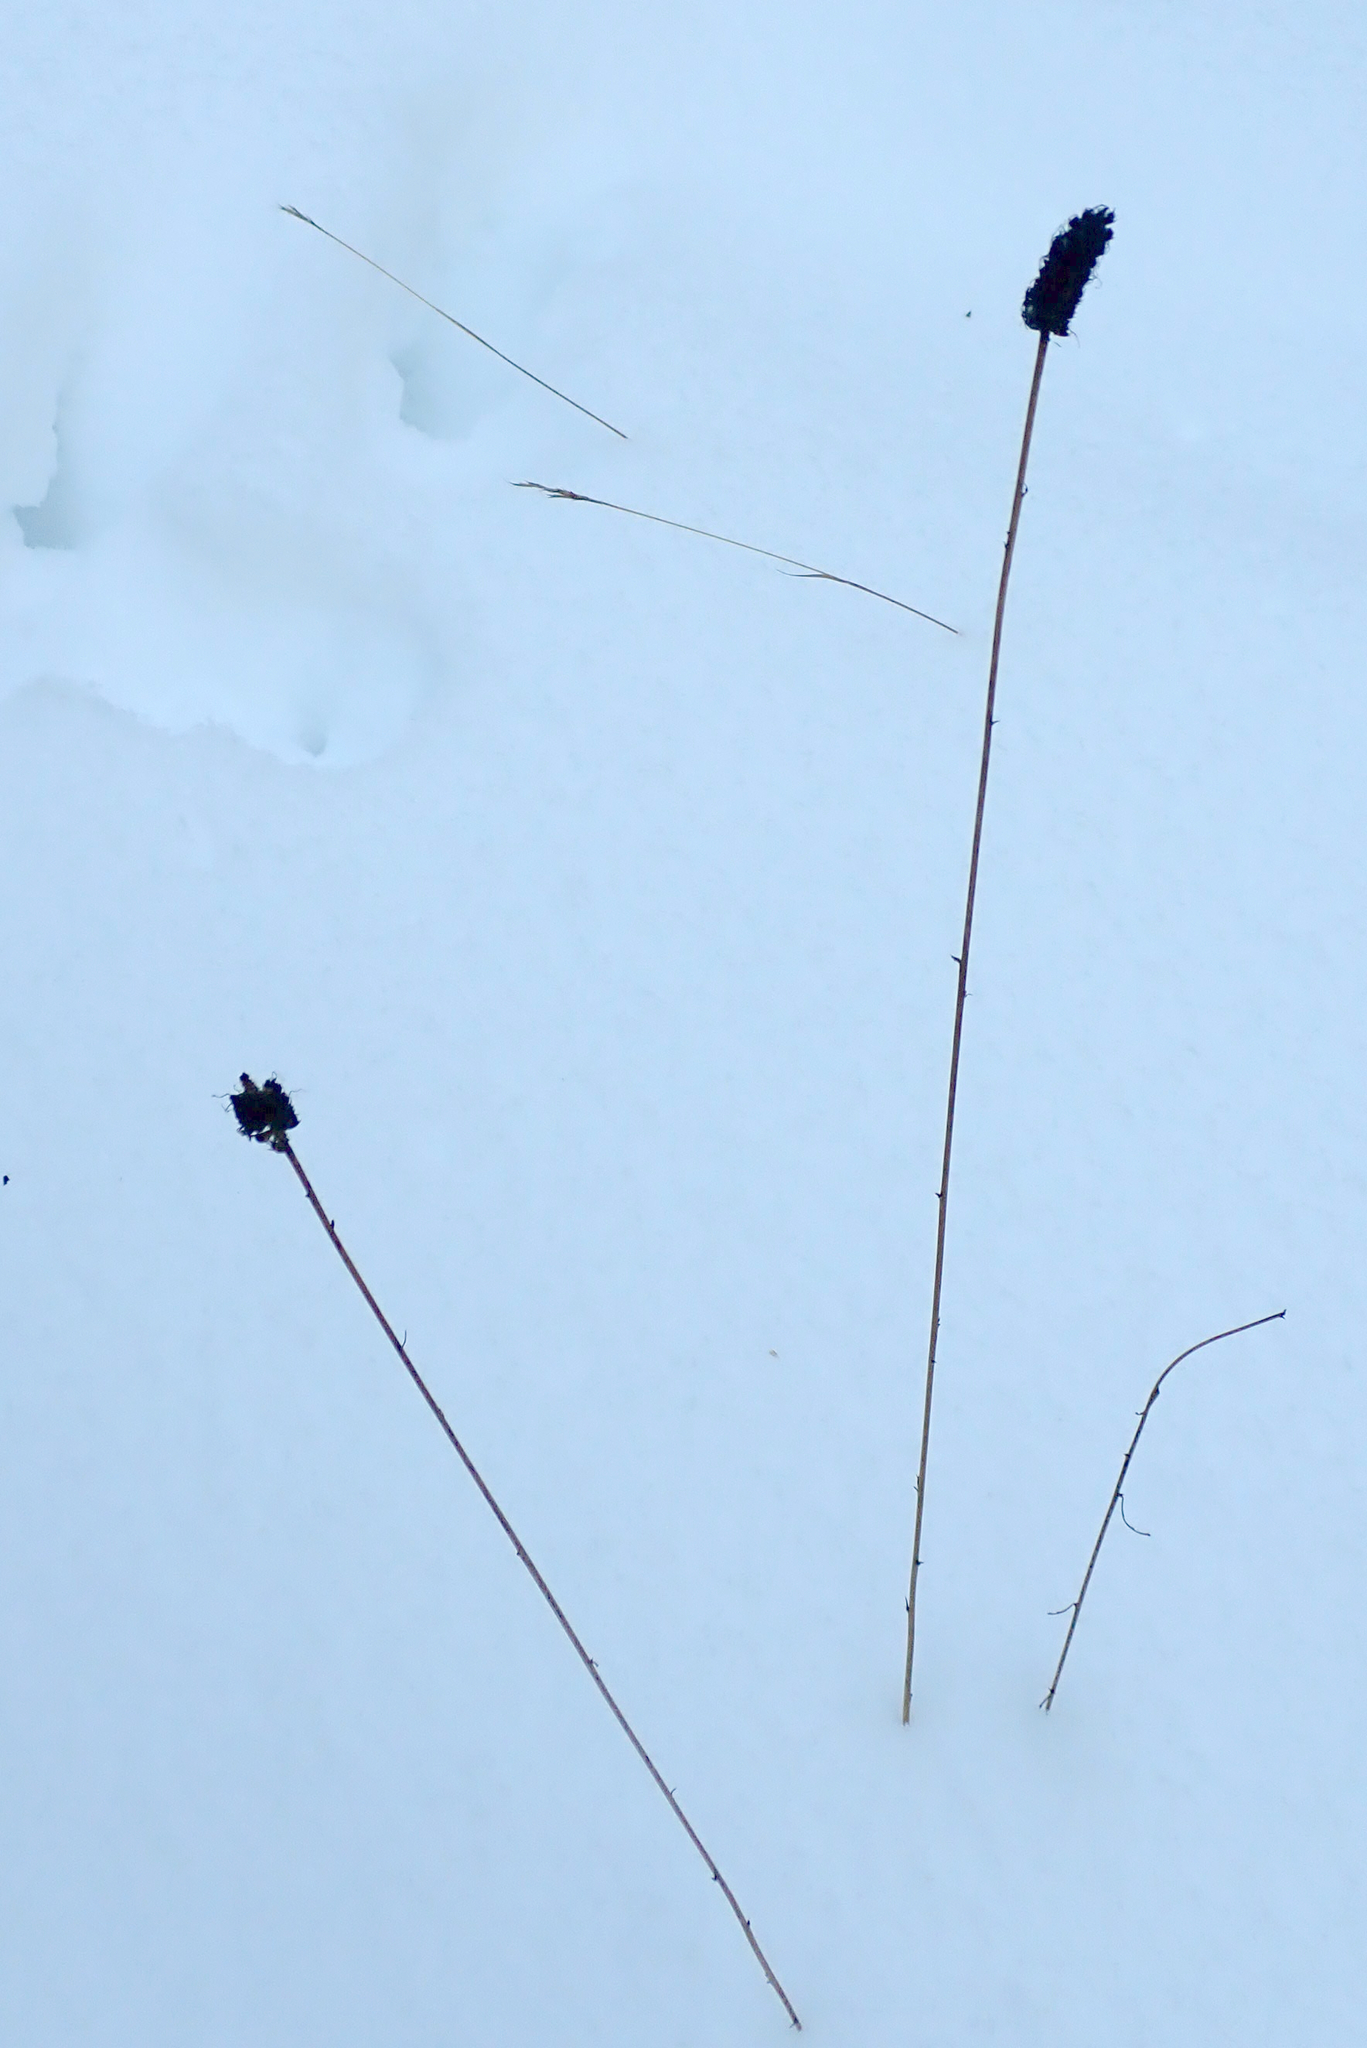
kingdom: Plantae
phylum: Tracheophyta
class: Magnoliopsida
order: Fabales
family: Fabaceae
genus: Dalea
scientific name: Dalea purpurea
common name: Purple prairie-clover
